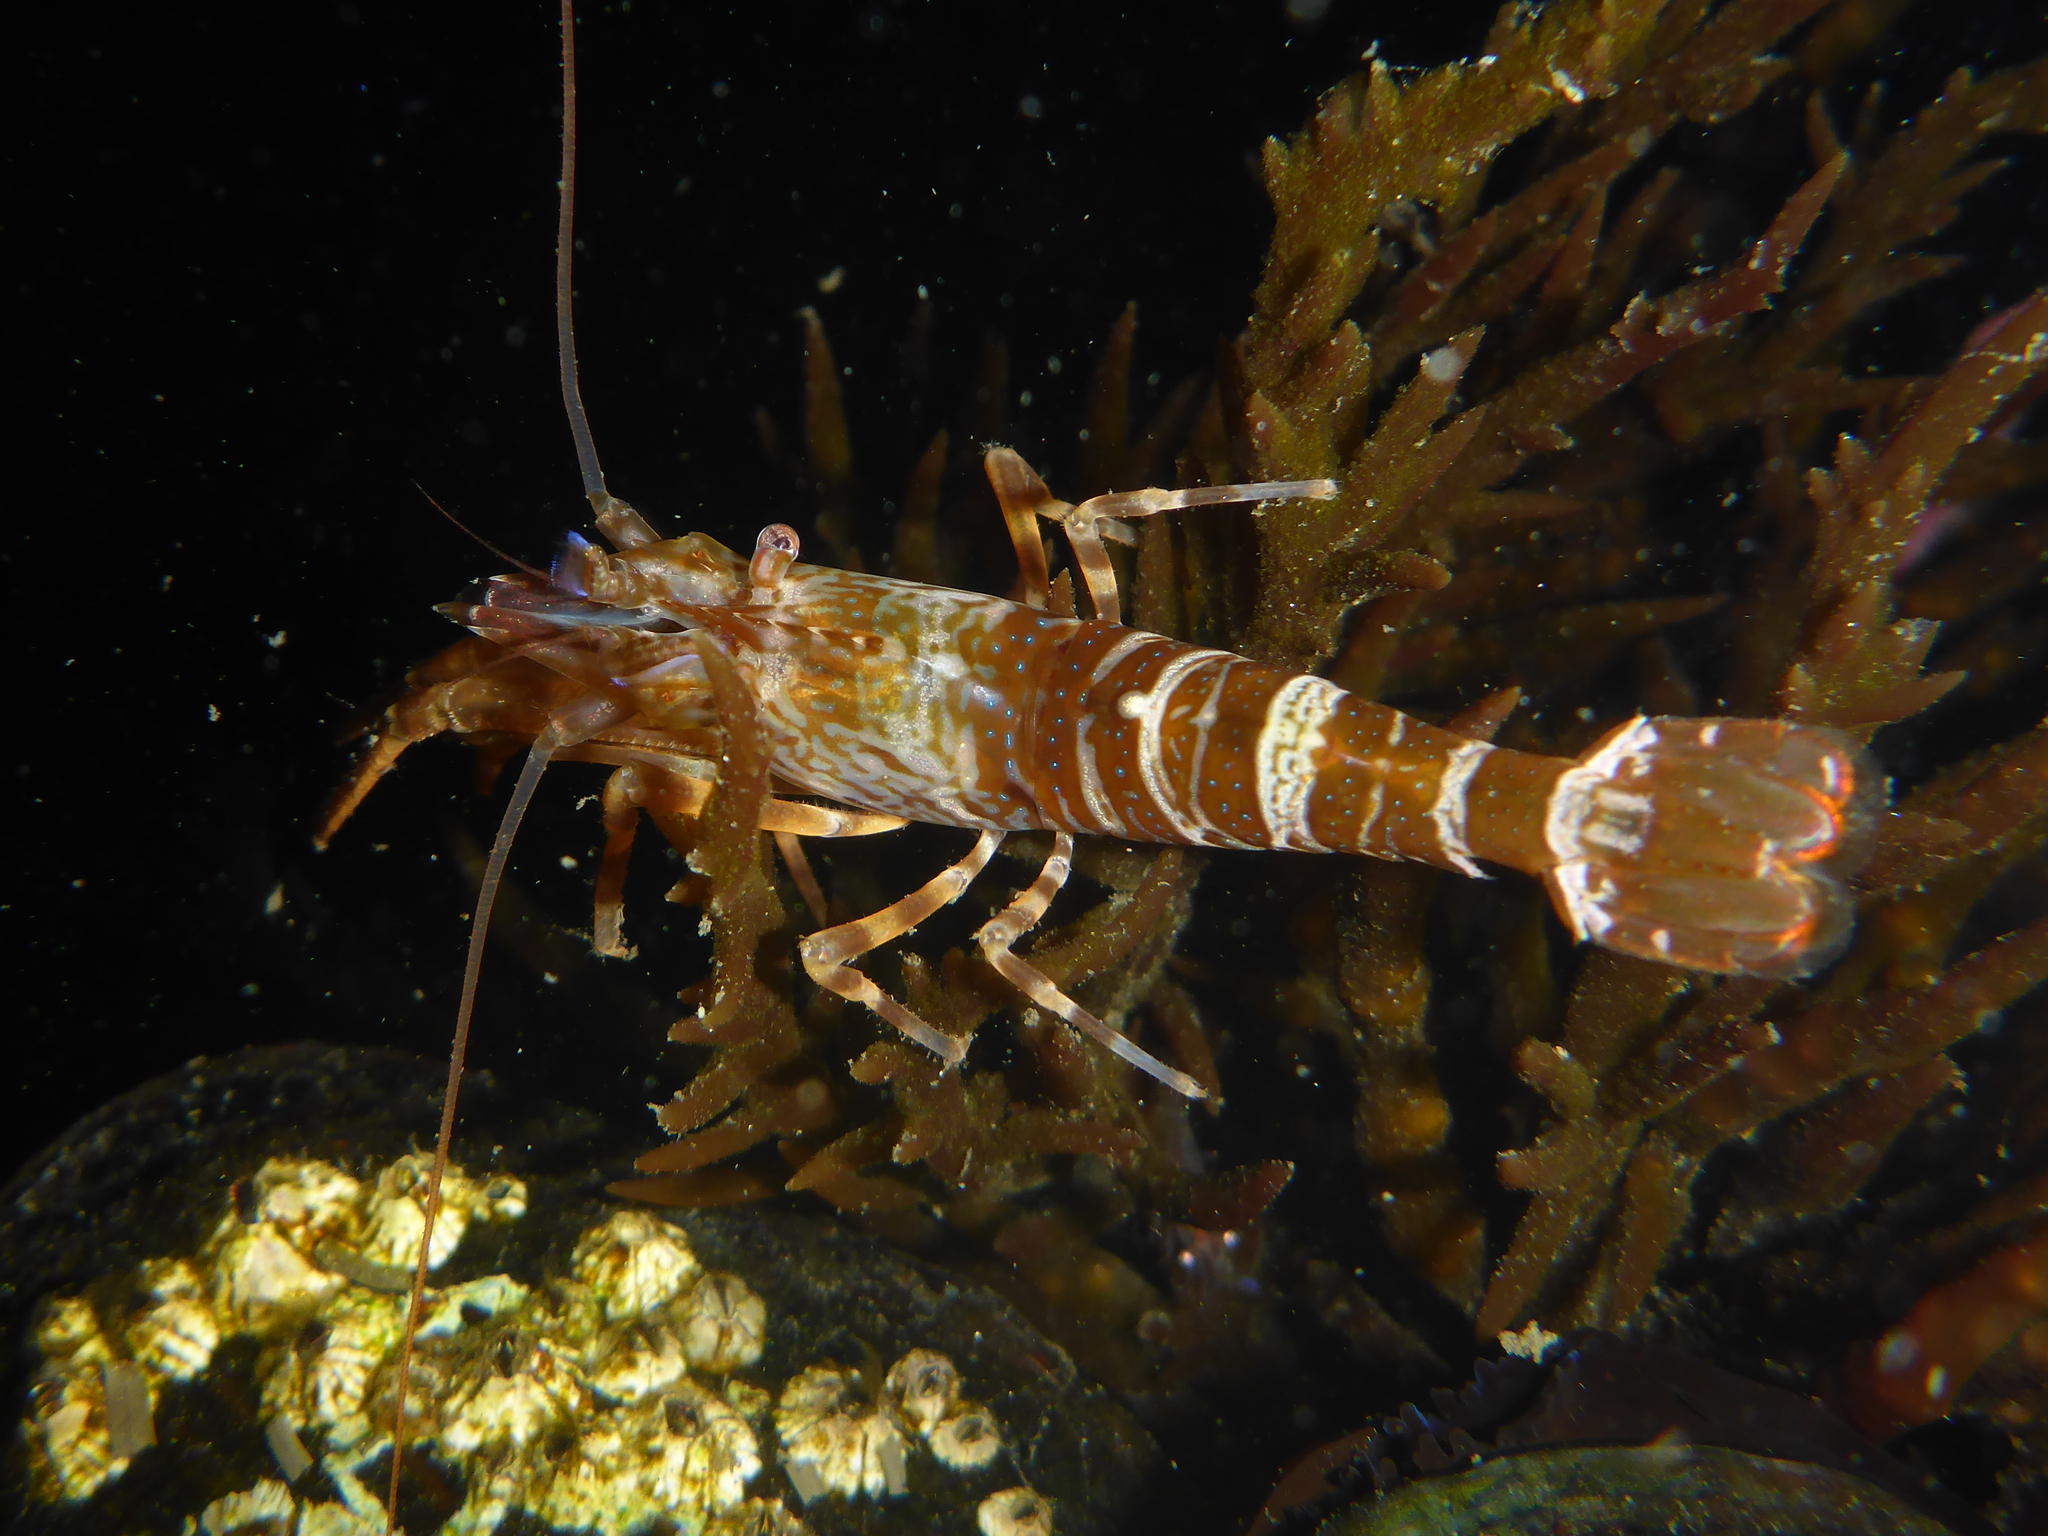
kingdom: Animalia
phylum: Arthropoda
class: Malacostraca
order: Decapoda
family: Thoridae
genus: Heptacarpus
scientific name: Heptacarpus palpator
